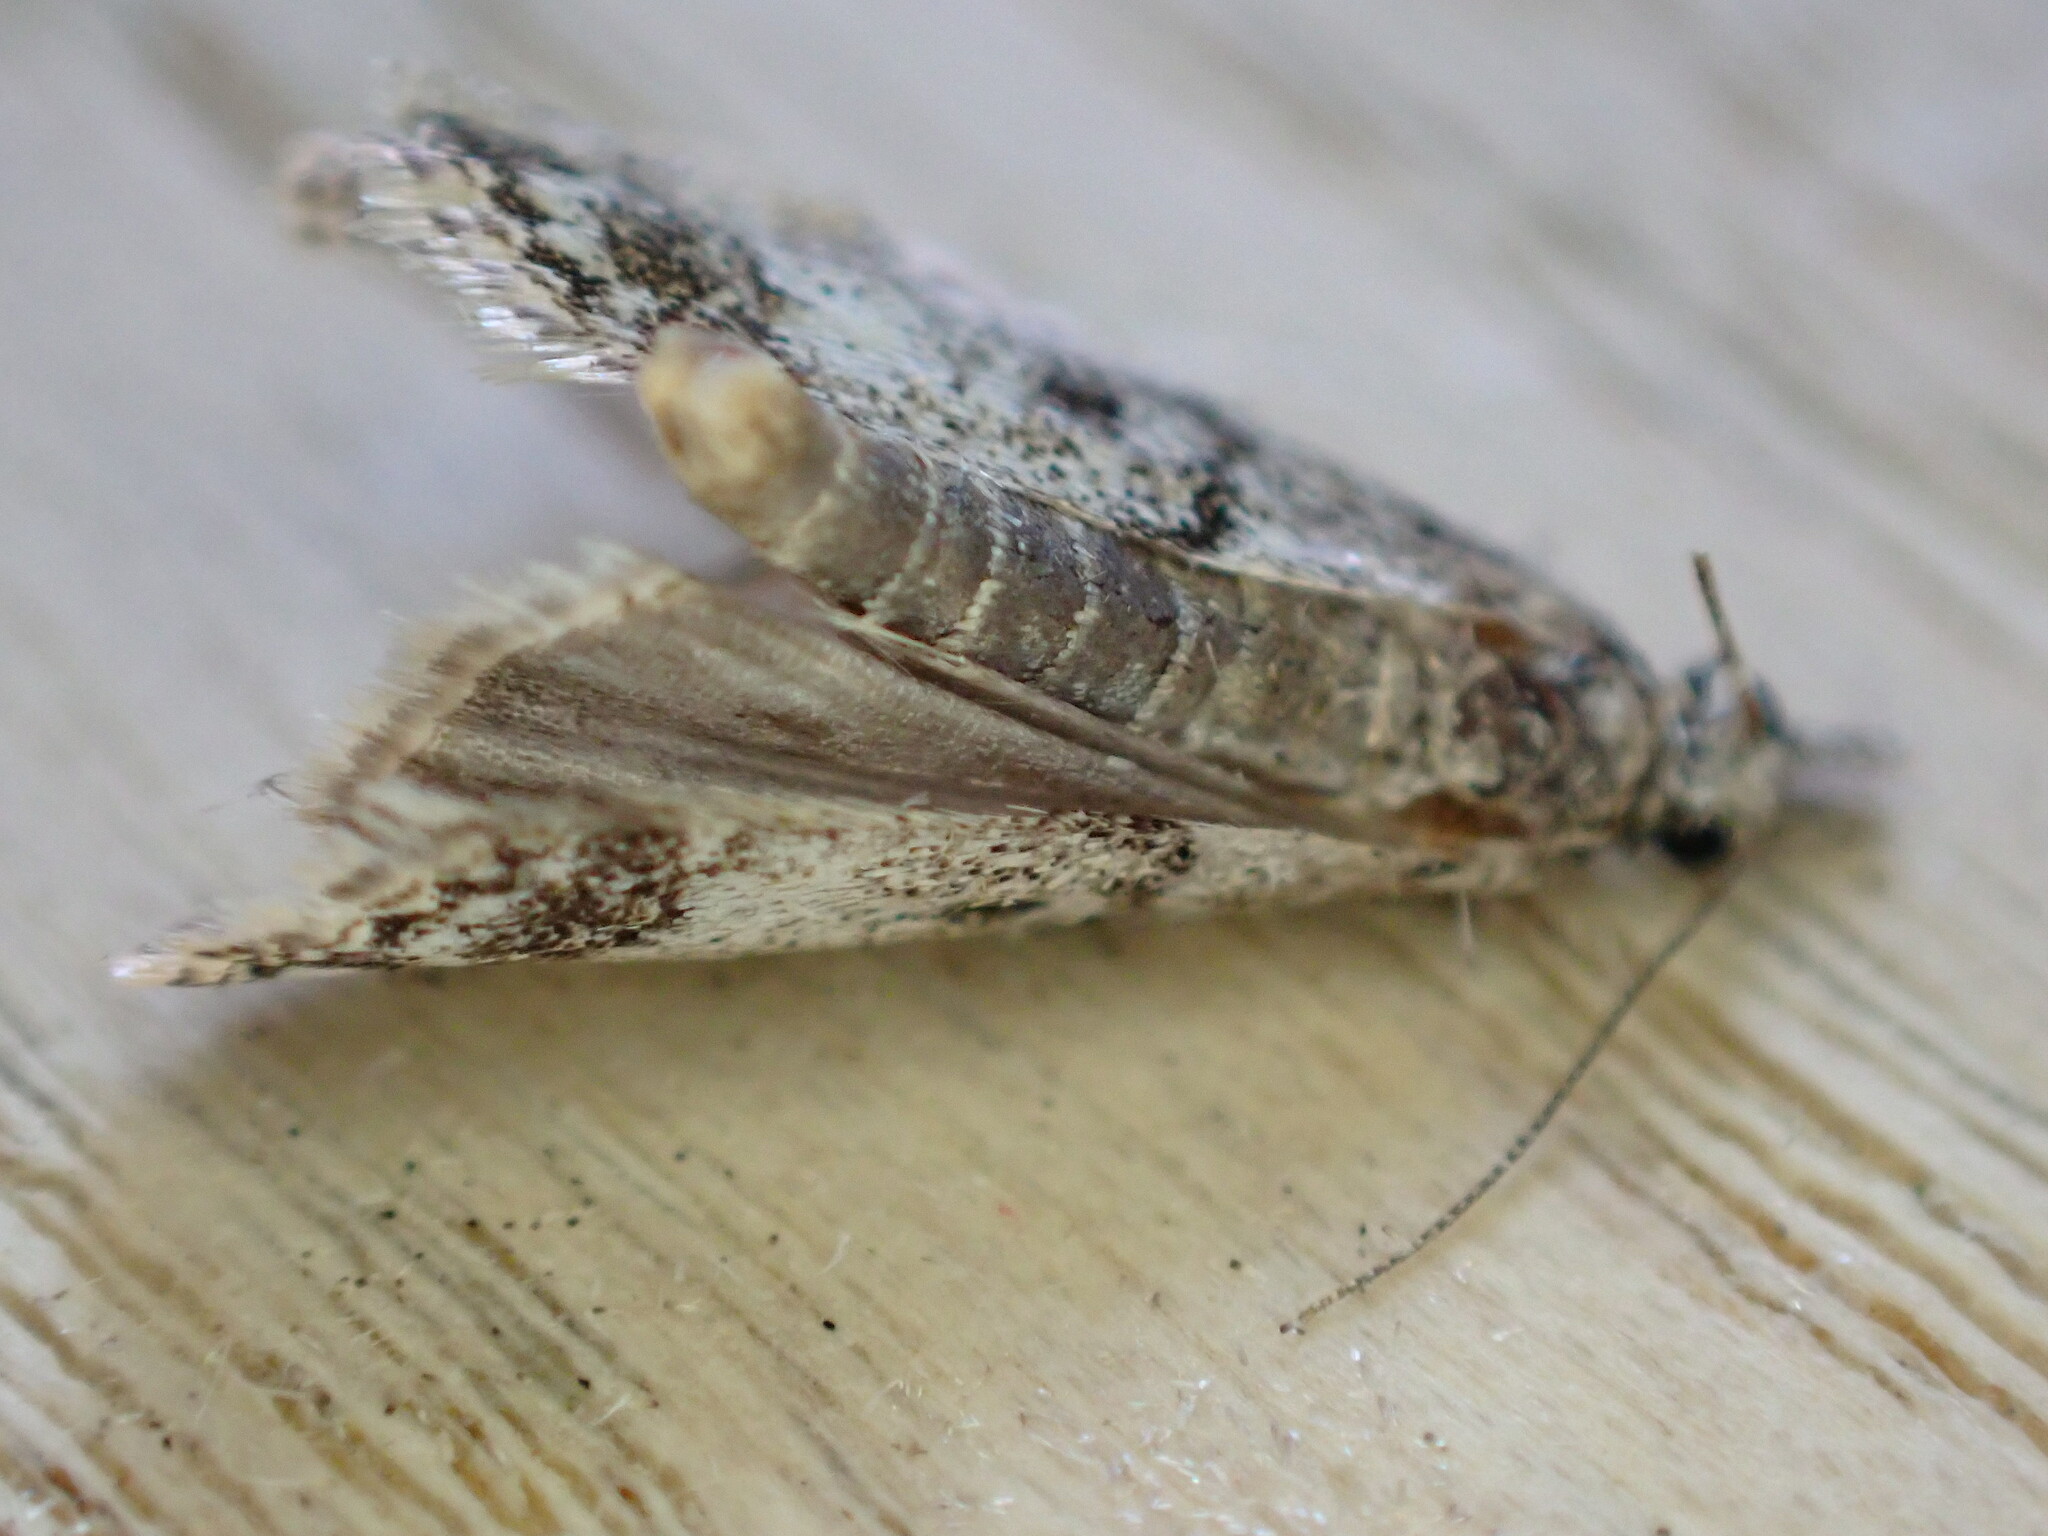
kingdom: Animalia
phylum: Arthropoda
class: Insecta
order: Lepidoptera
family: Crambidae
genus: Eudonia
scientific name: Eudonia lacustrata
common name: Little grey
